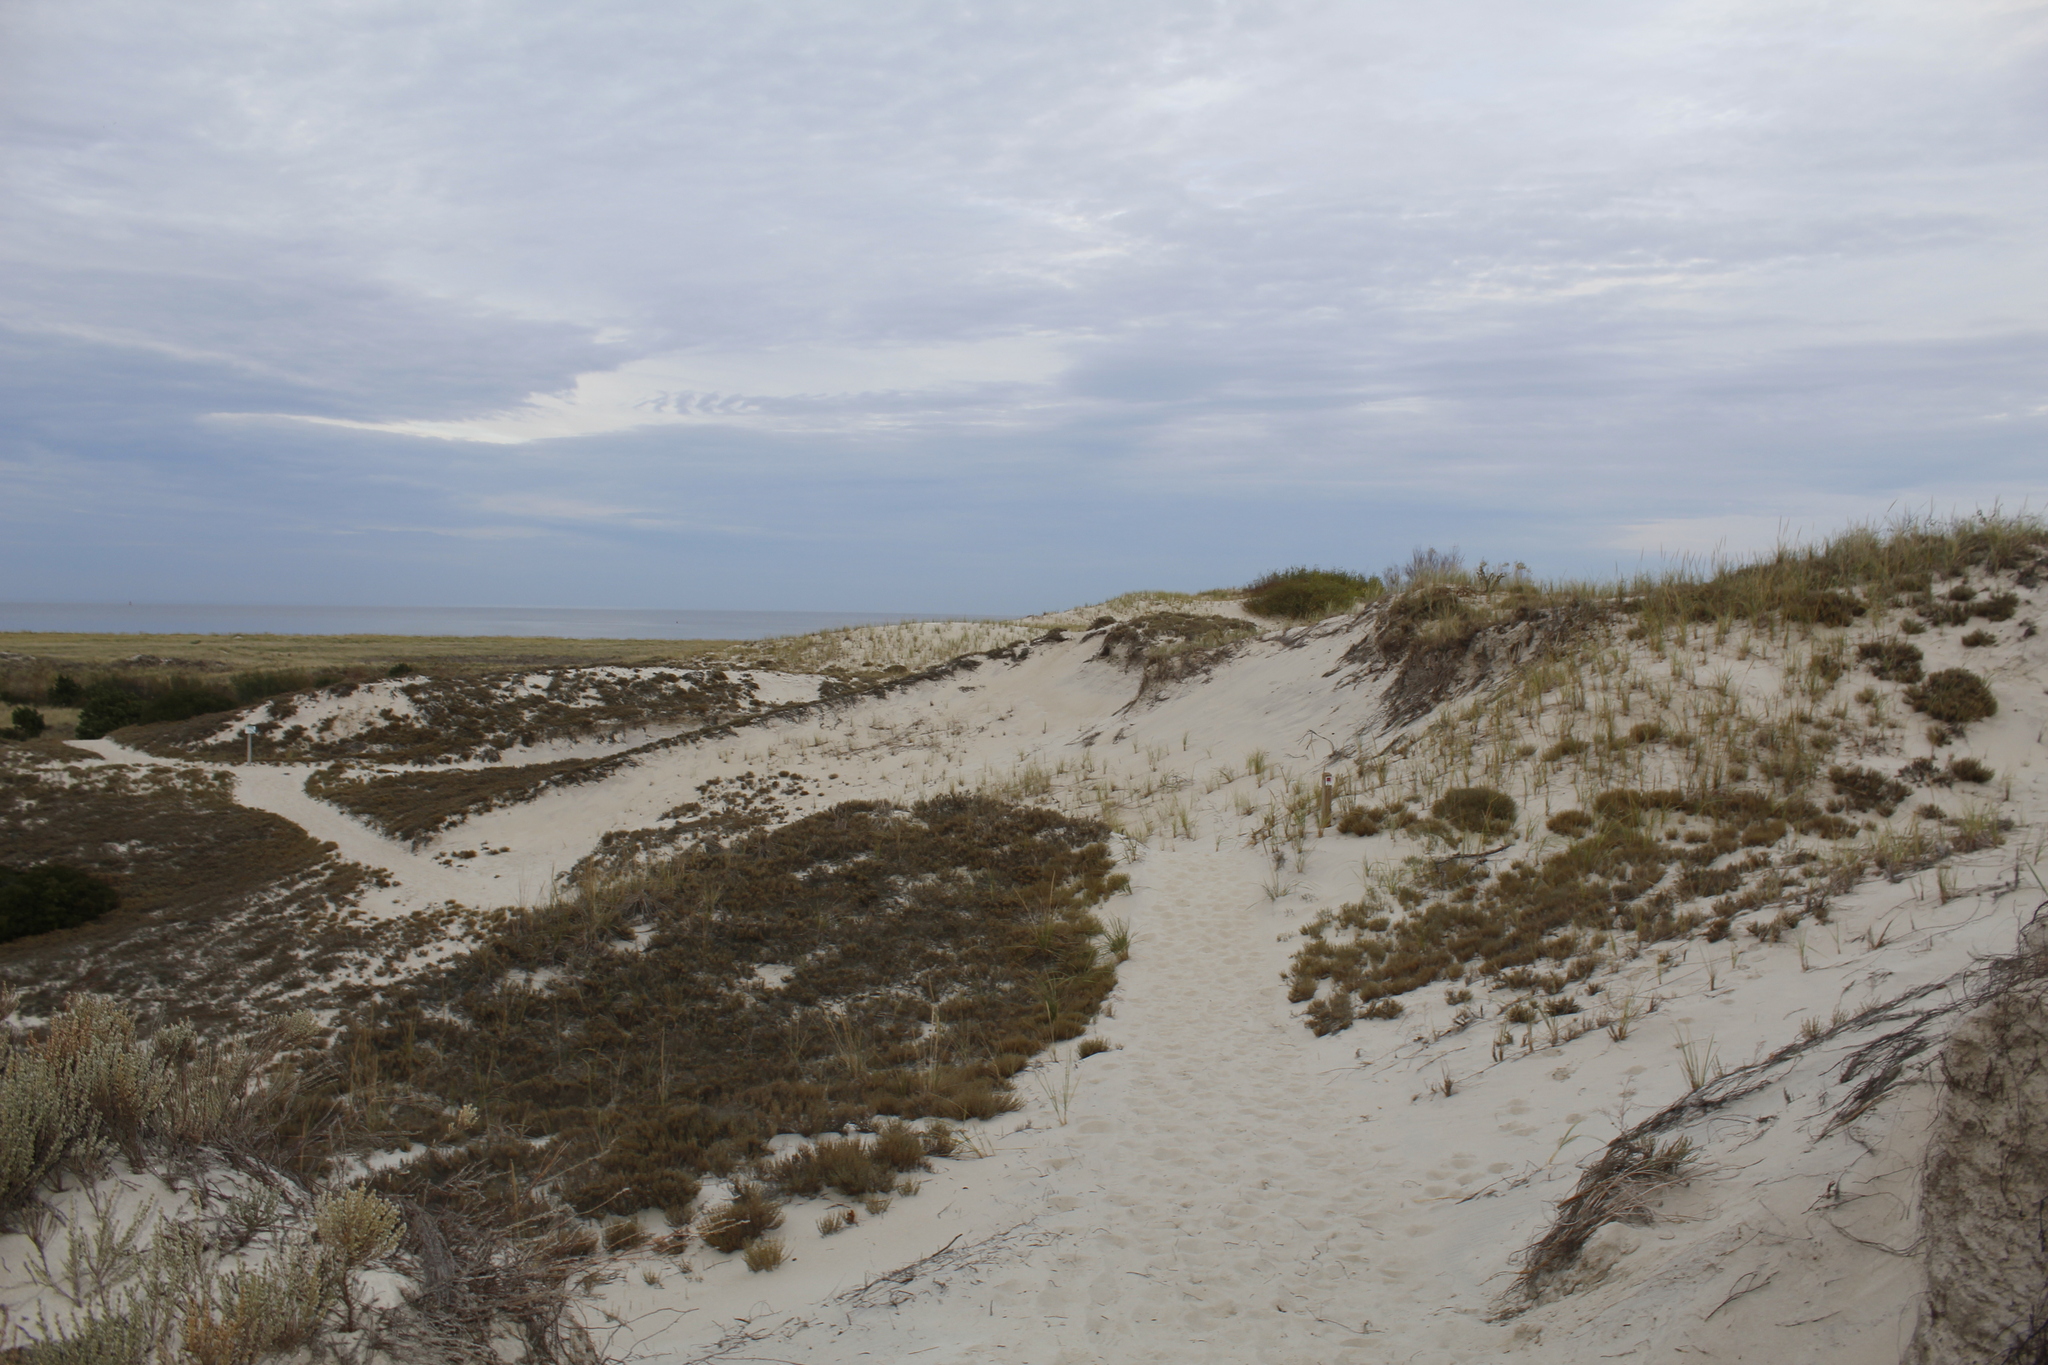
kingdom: Plantae
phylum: Tracheophyta
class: Magnoliopsida
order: Malvales
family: Cistaceae
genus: Hudsonia
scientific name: Hudsonia tomentosa
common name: Beach-heath
